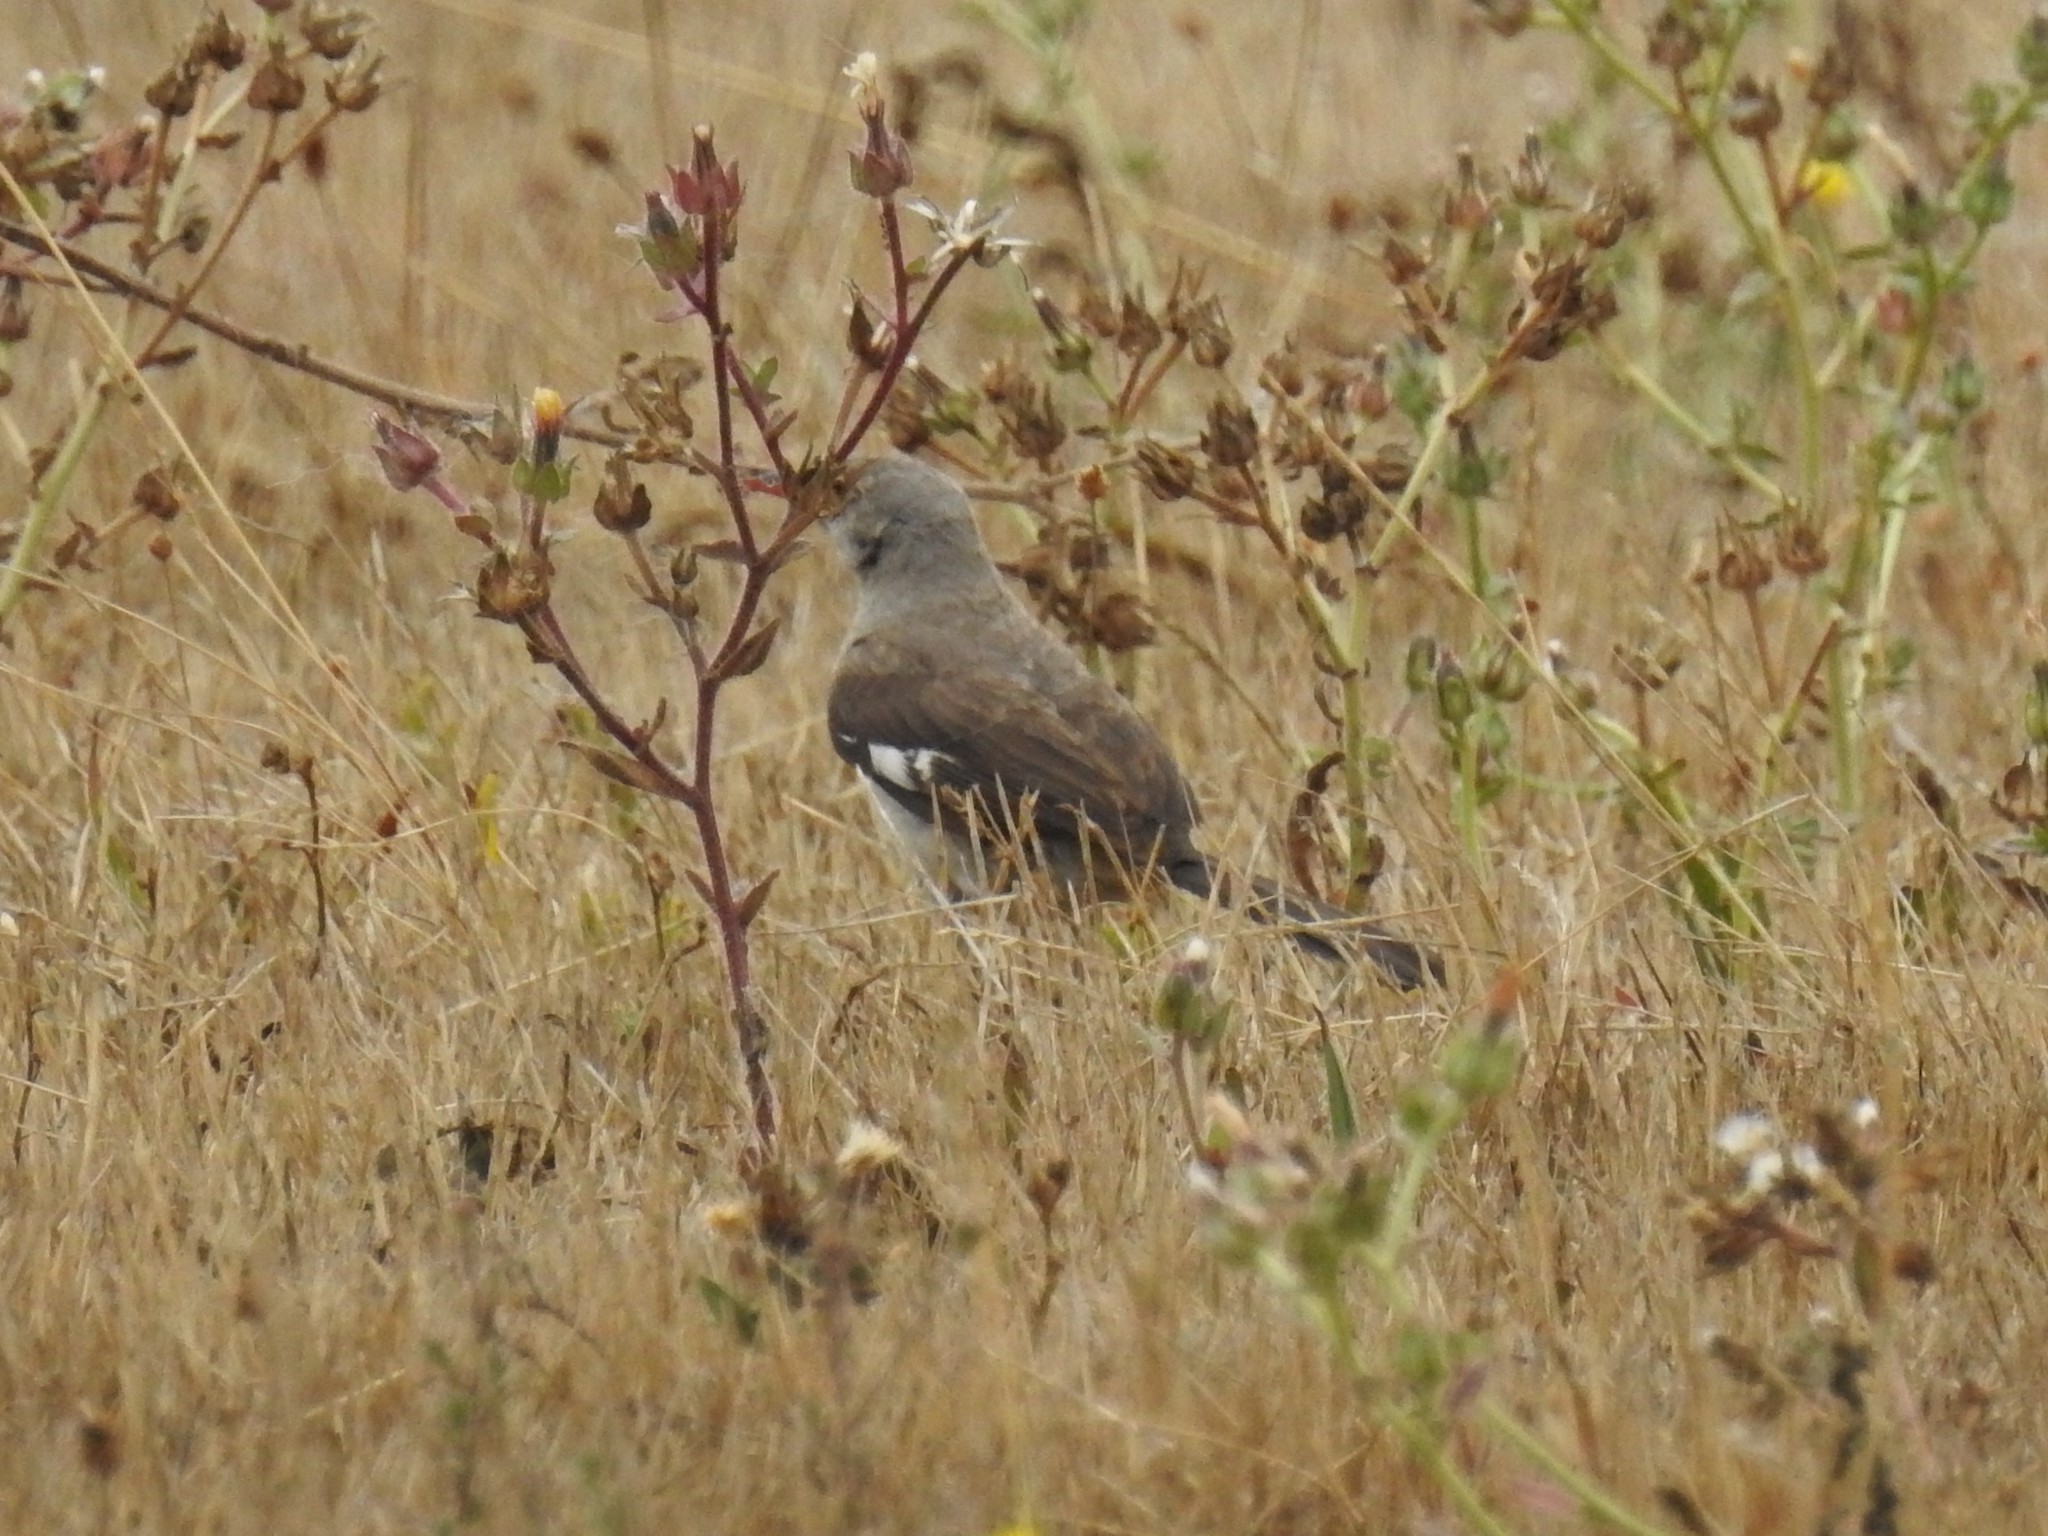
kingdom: Animalia
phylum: Chordata
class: Aves
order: Passeriformes
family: Mimidae
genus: Mimus
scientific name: Mimus polyglottos
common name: Northern mockingbird
